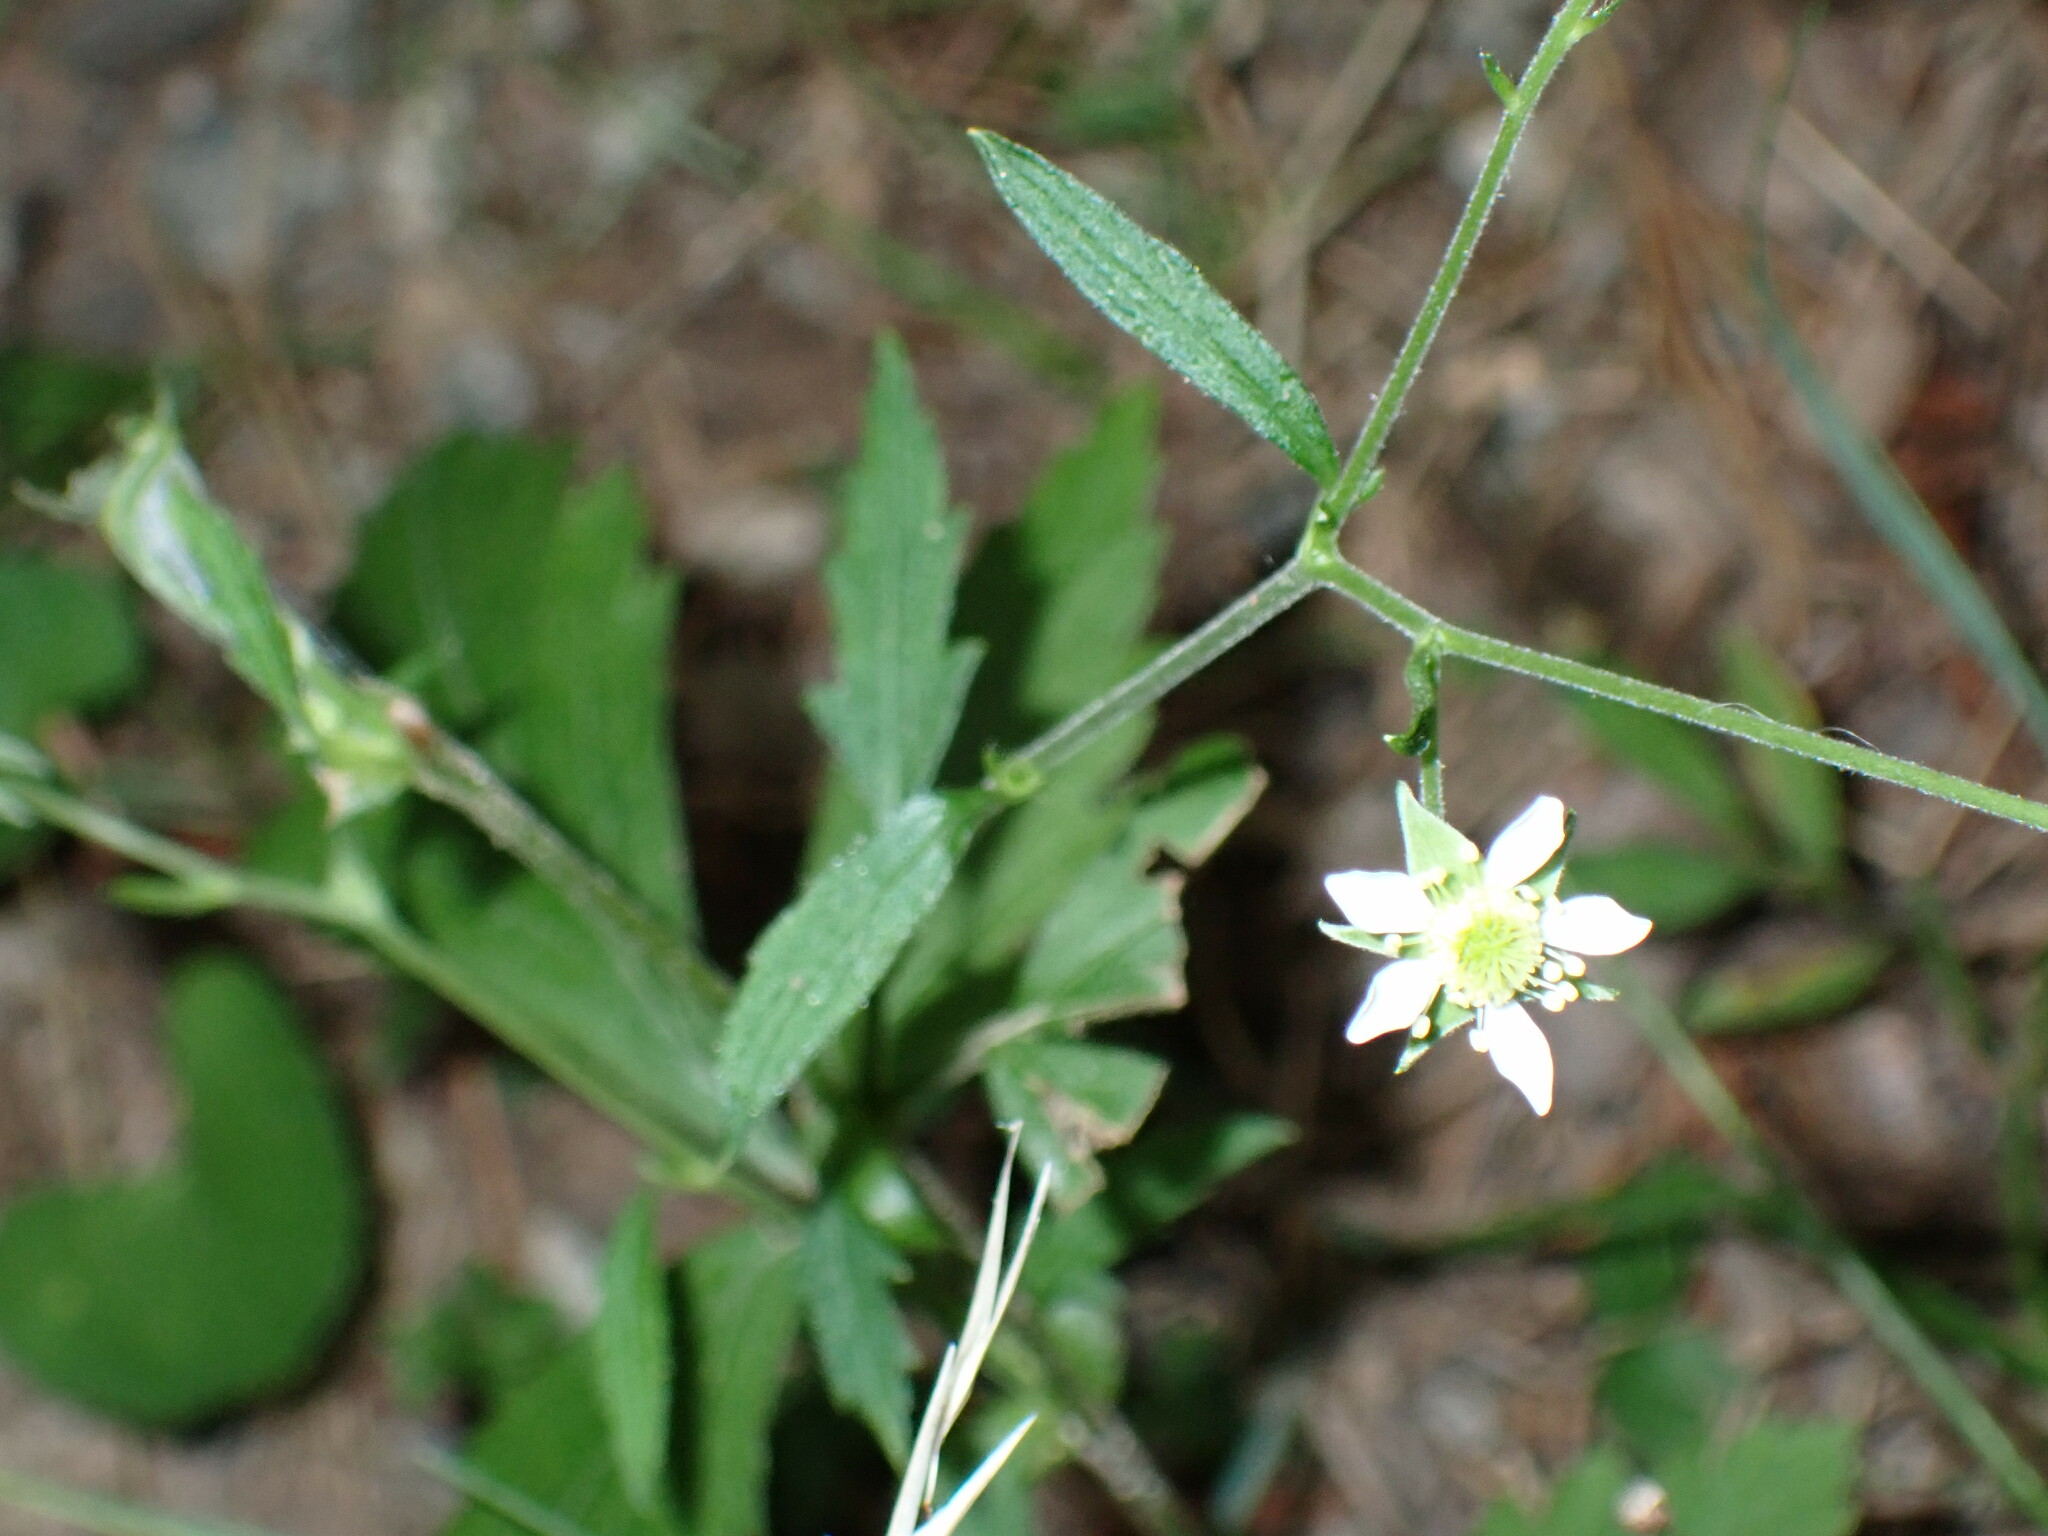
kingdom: Plantae
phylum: Tracheophyta
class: Magnoliopsida
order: Rosales
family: Rosaceae
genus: Geum
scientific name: Geum canadense
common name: White avens
